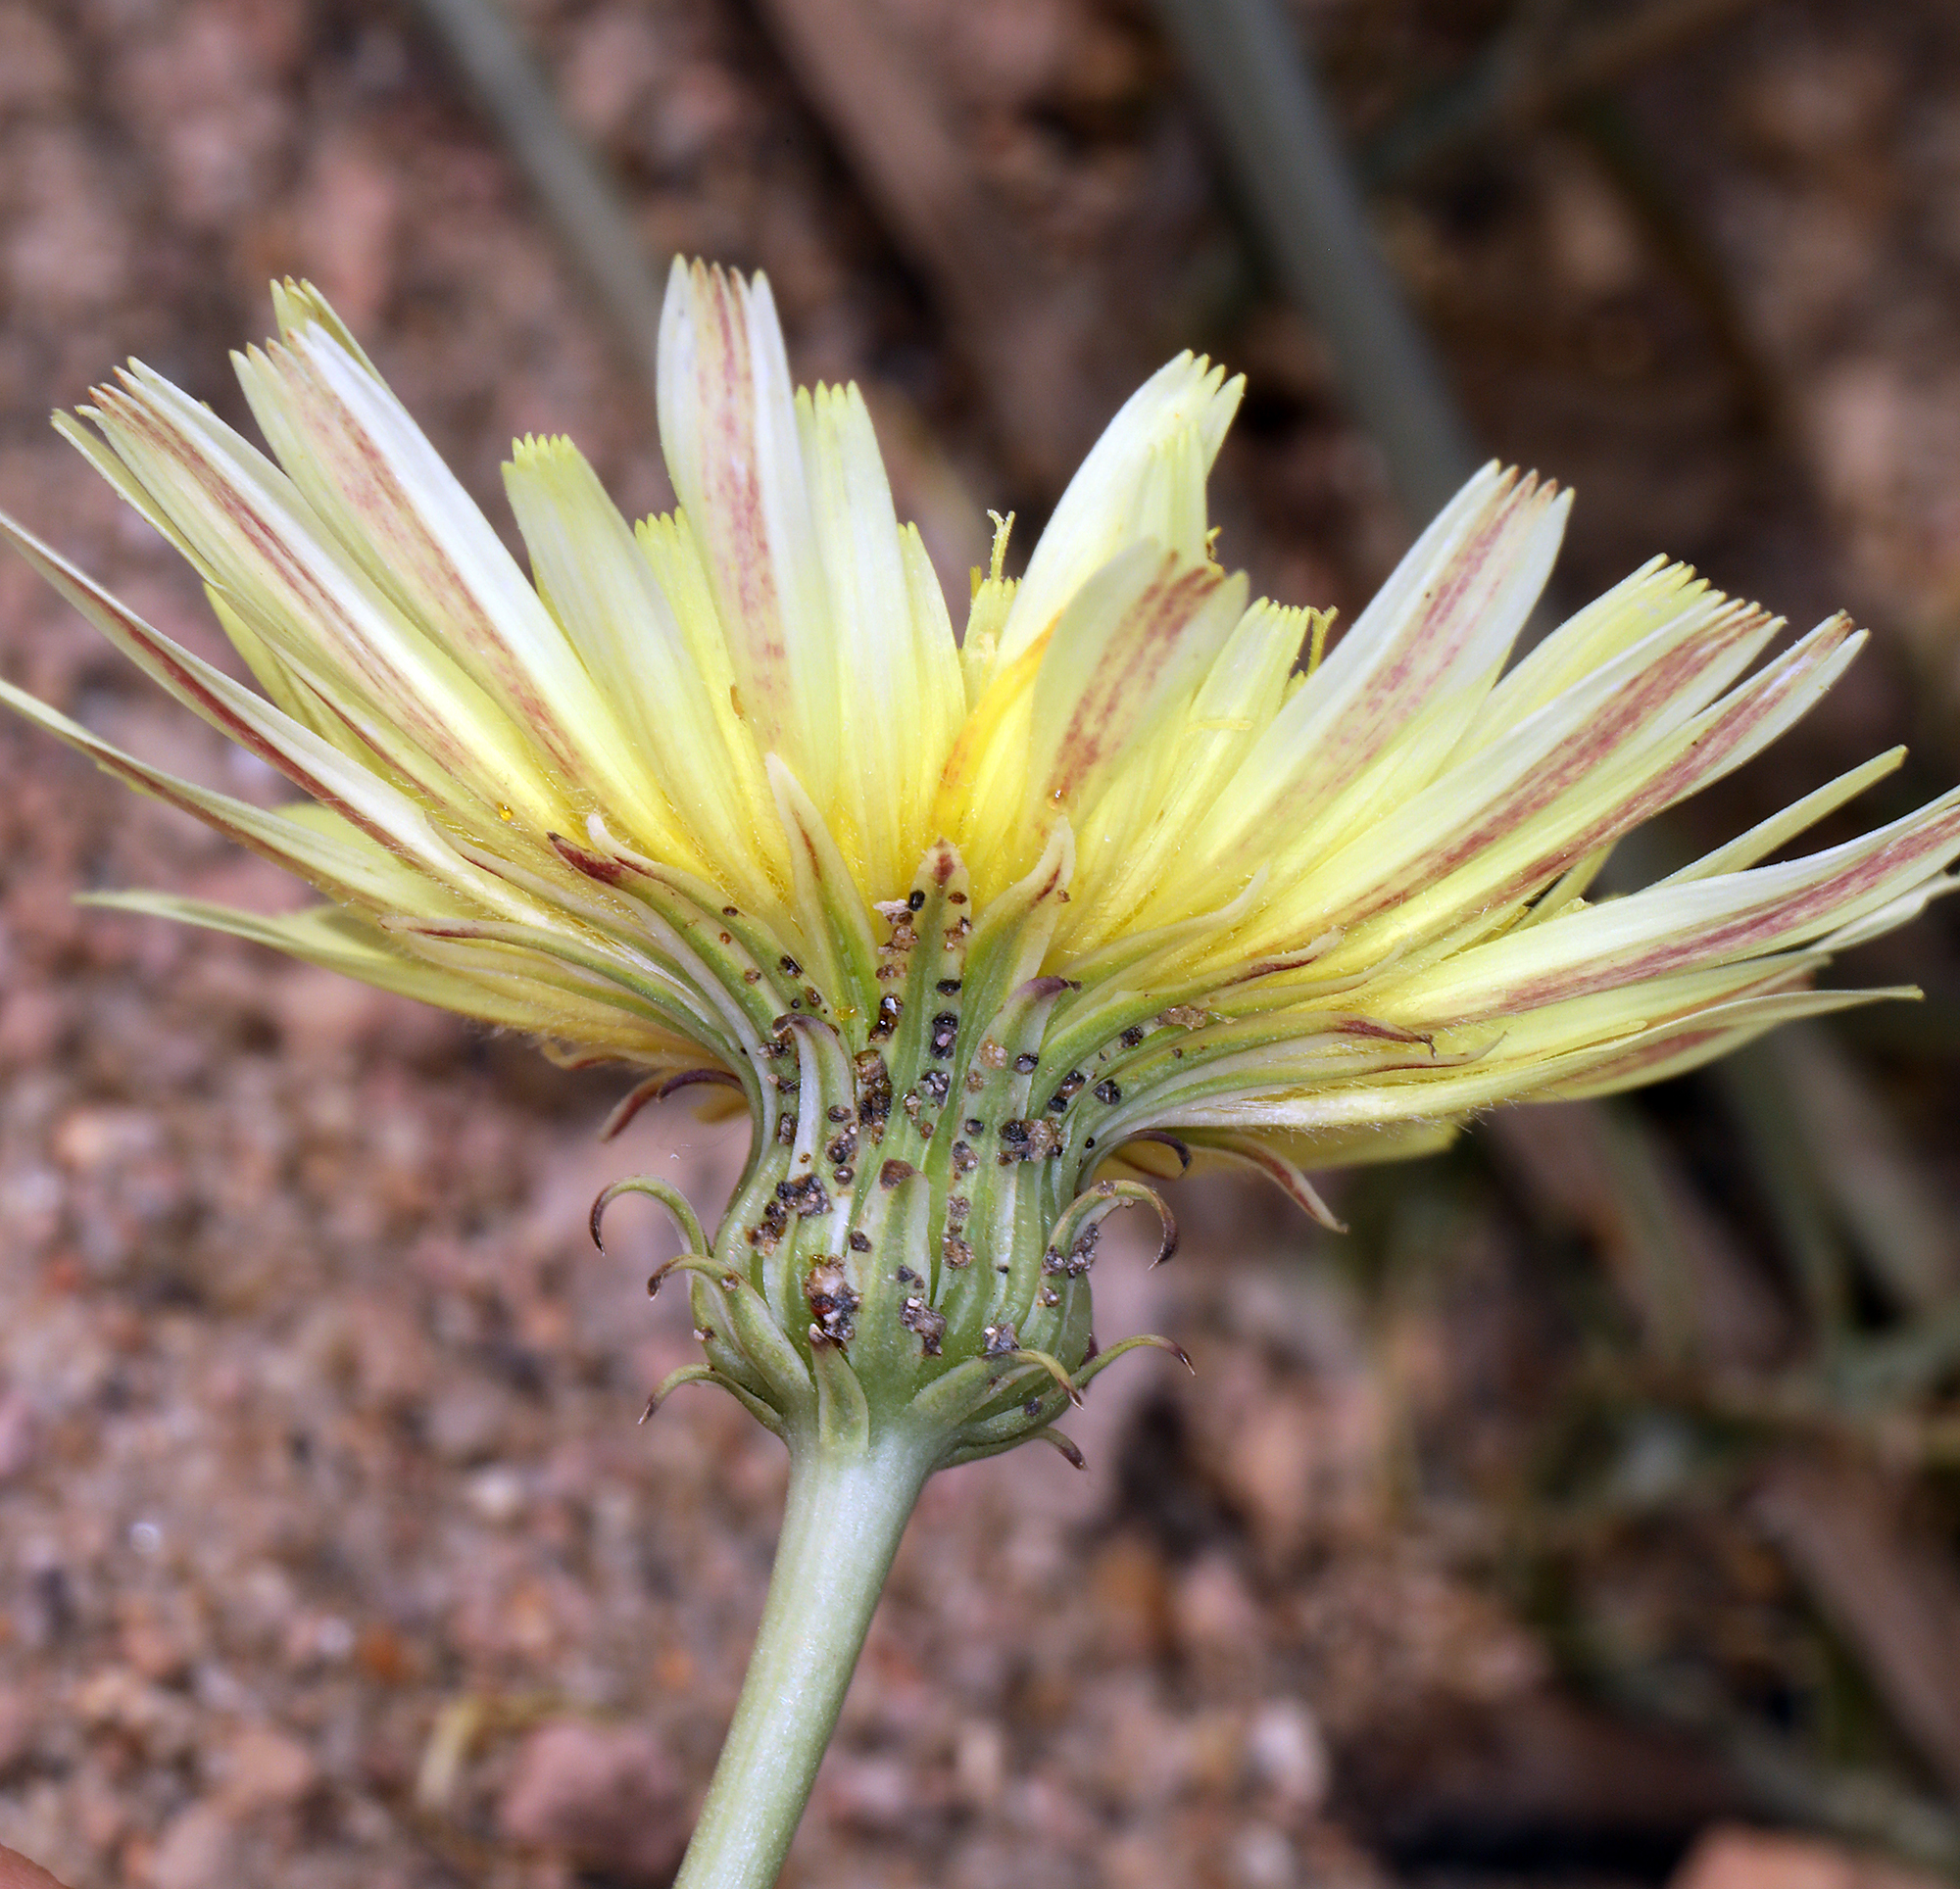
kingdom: Plantae
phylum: Tracheophyta
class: Magnoliopsida
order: Asterales
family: Asteraceae
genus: Malacothrix
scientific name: Malacothrix glabrata
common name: Smooth desert-dandelion
